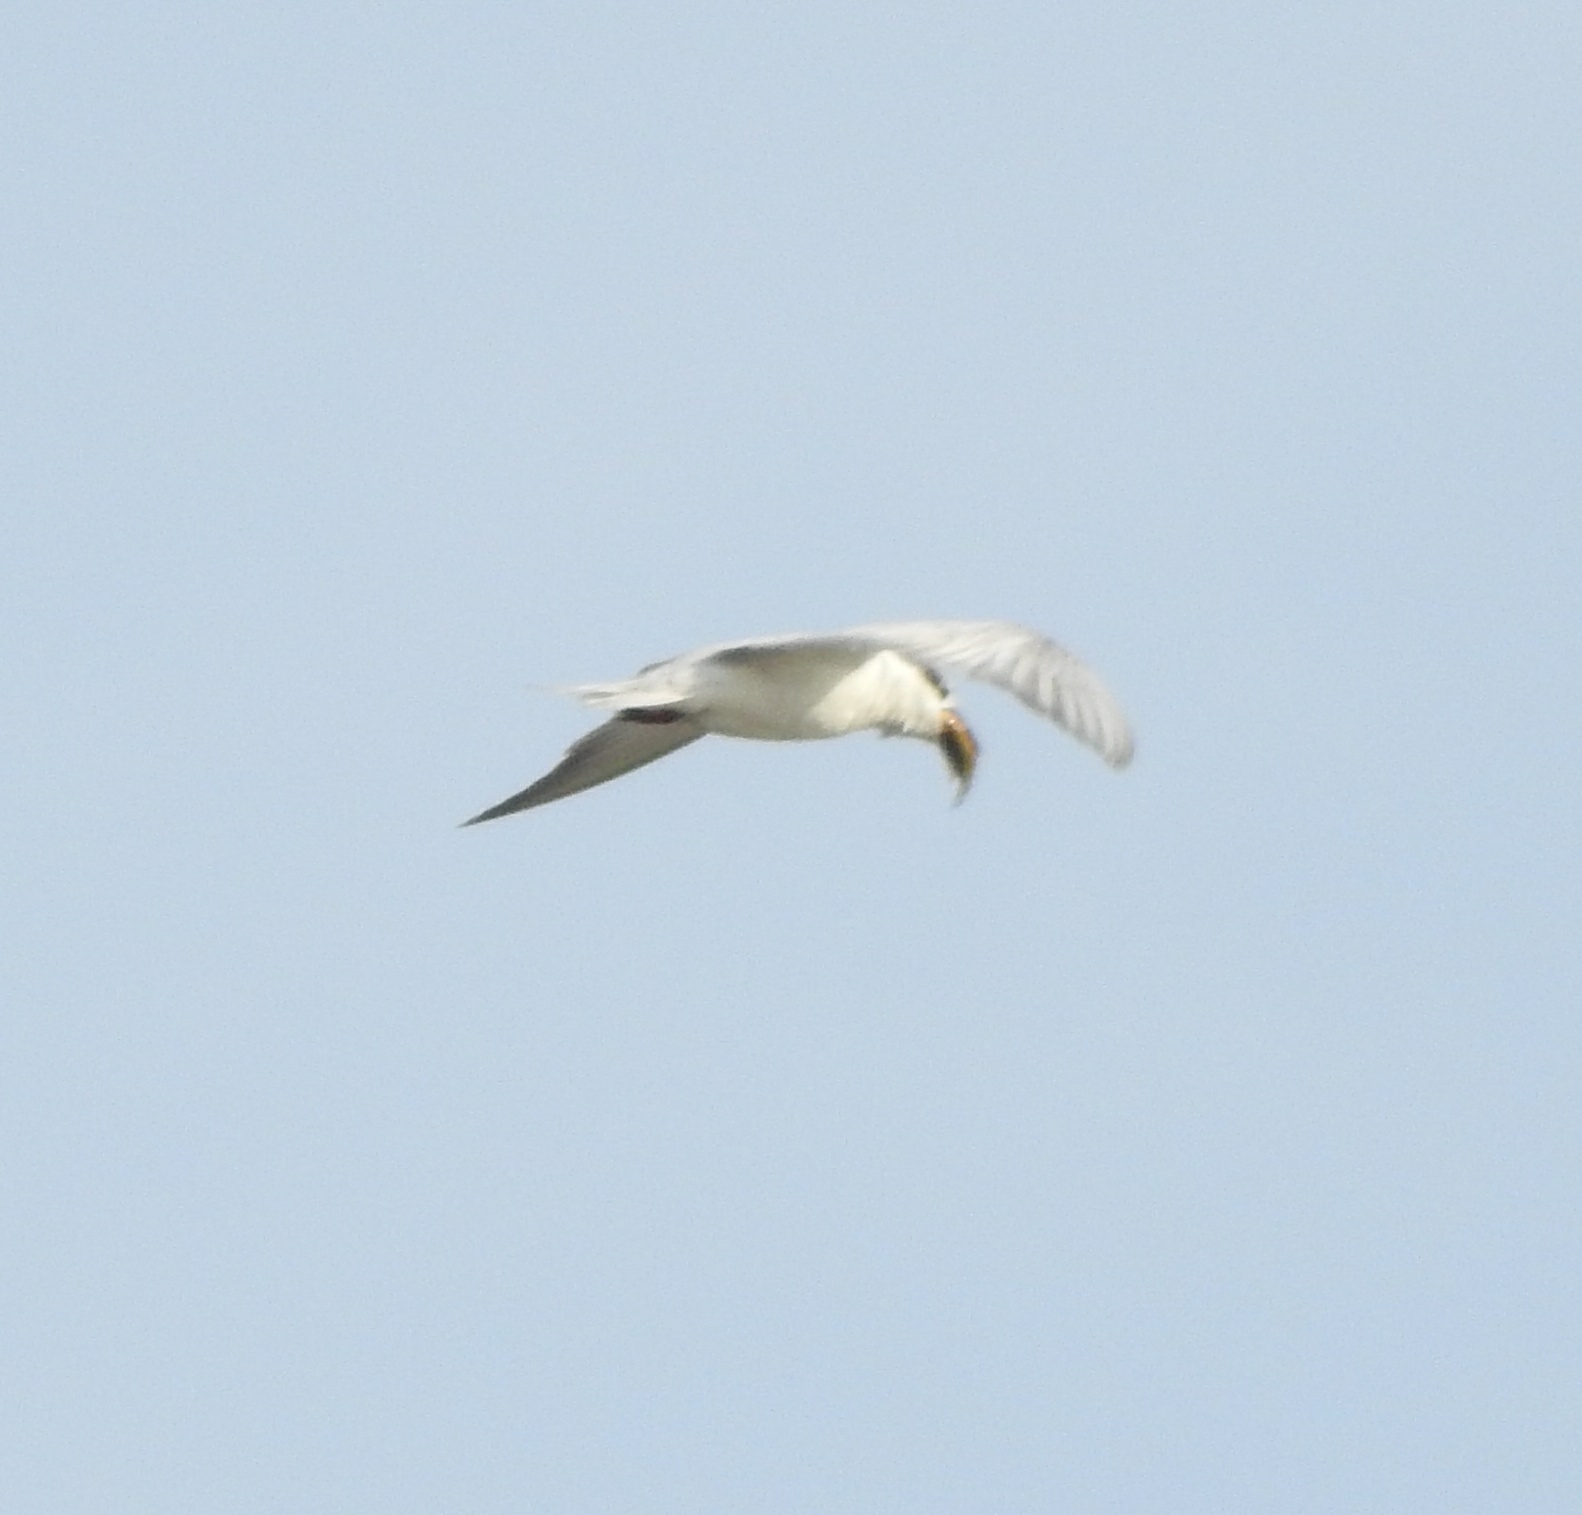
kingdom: Animalia
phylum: Chordata
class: Aves
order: Charadriiformes
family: Laridae
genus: Chlidonias
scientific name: Chlidonias hybrida
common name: Whiskered tern
